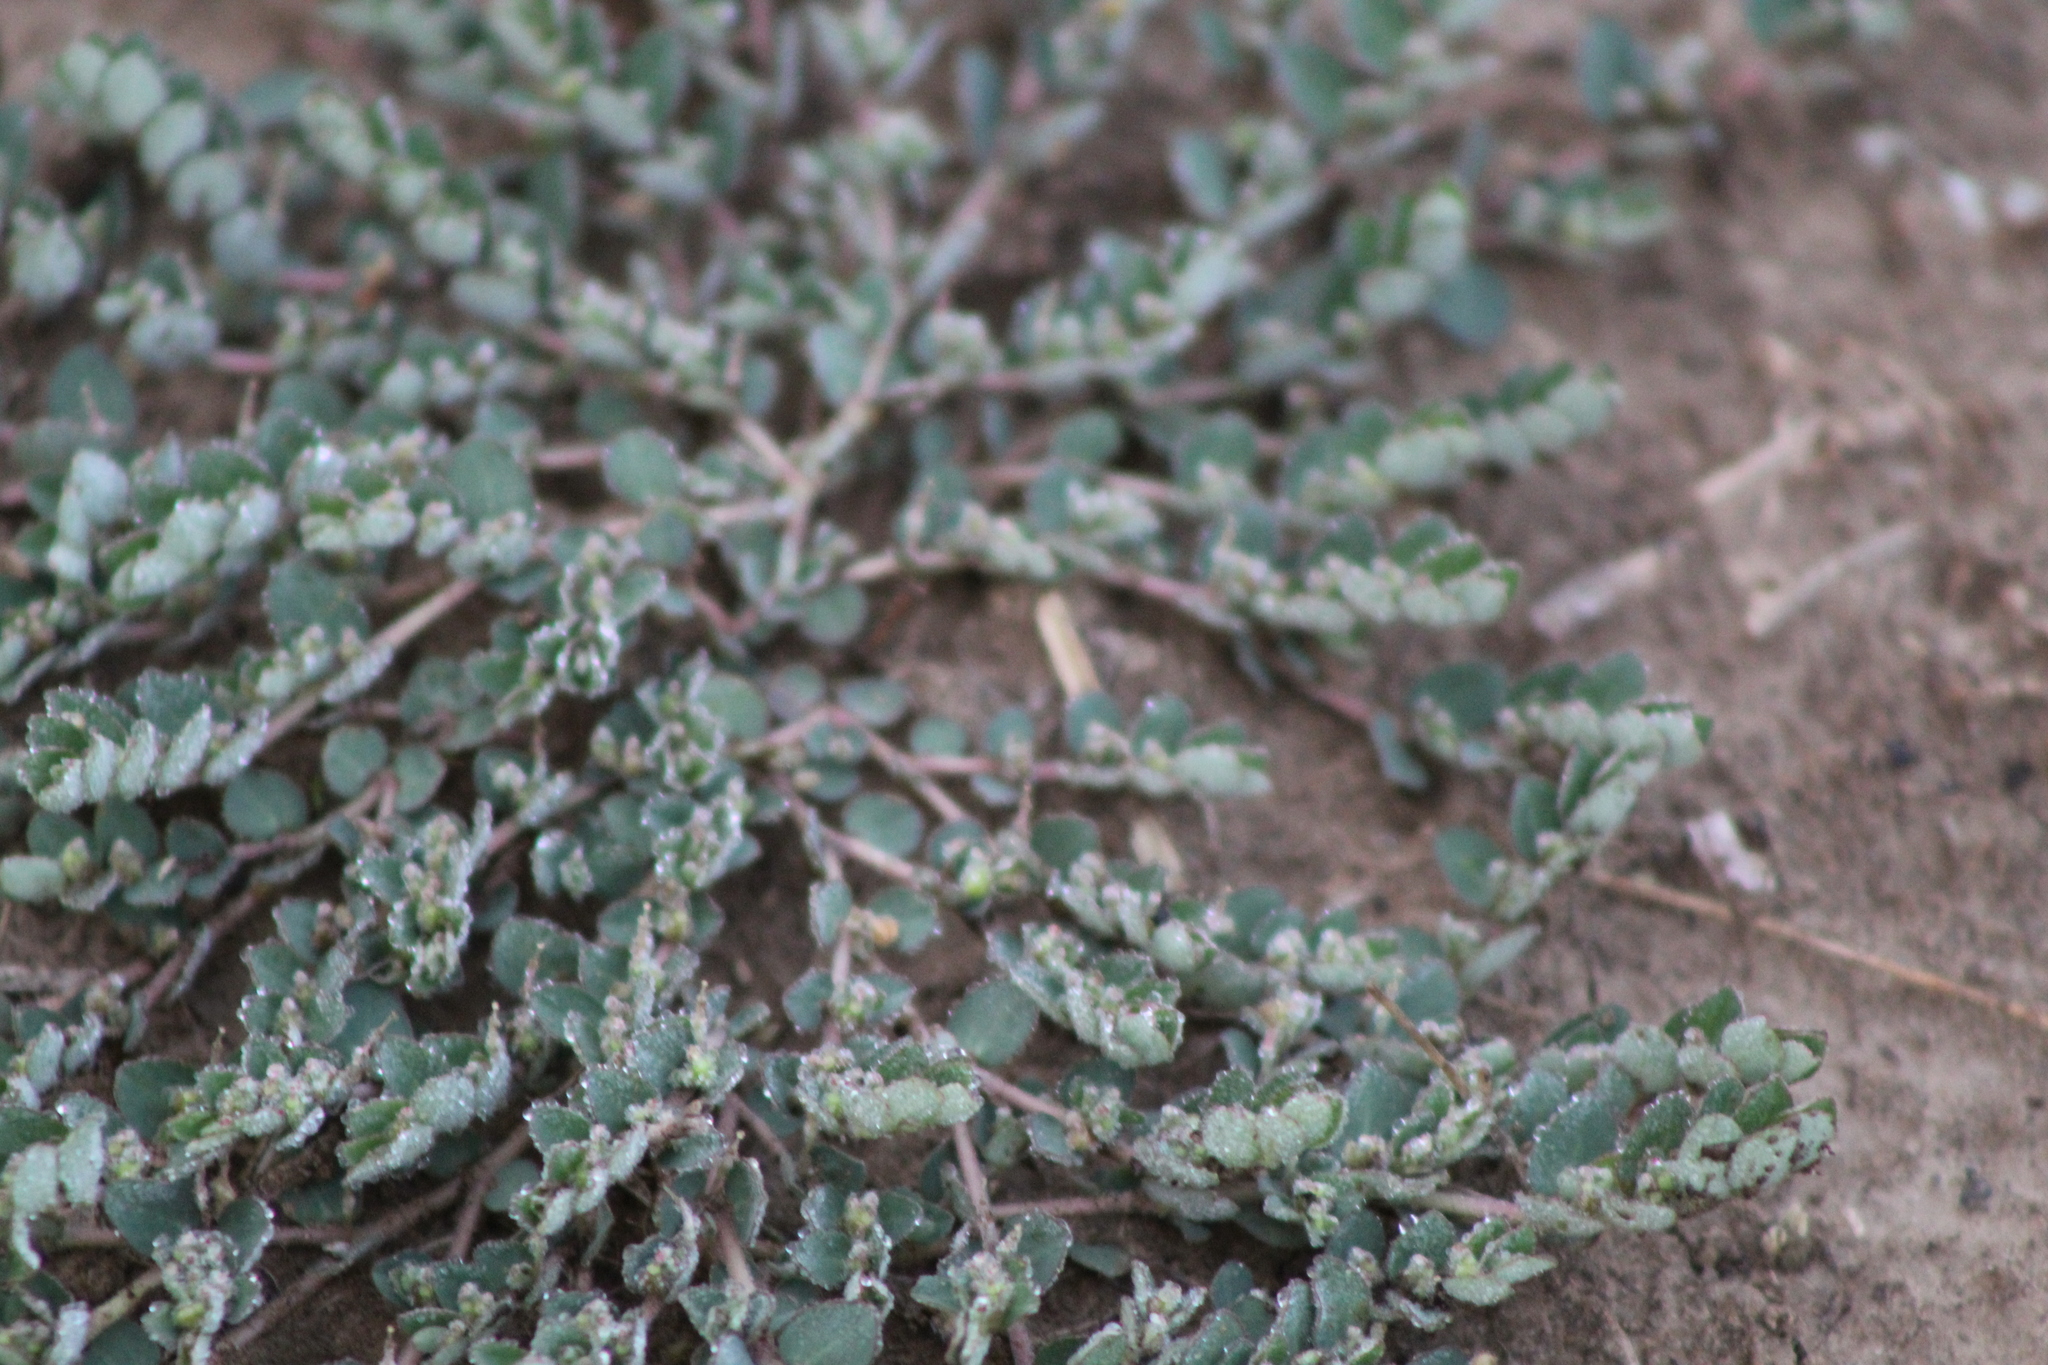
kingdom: Plantae
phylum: Tracheophyta
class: Magnoliopsida
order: Malpighiales
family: Euphorbiaceae
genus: Euphorbia
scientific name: Euphorbia prostrata
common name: Prostrate sandmat
